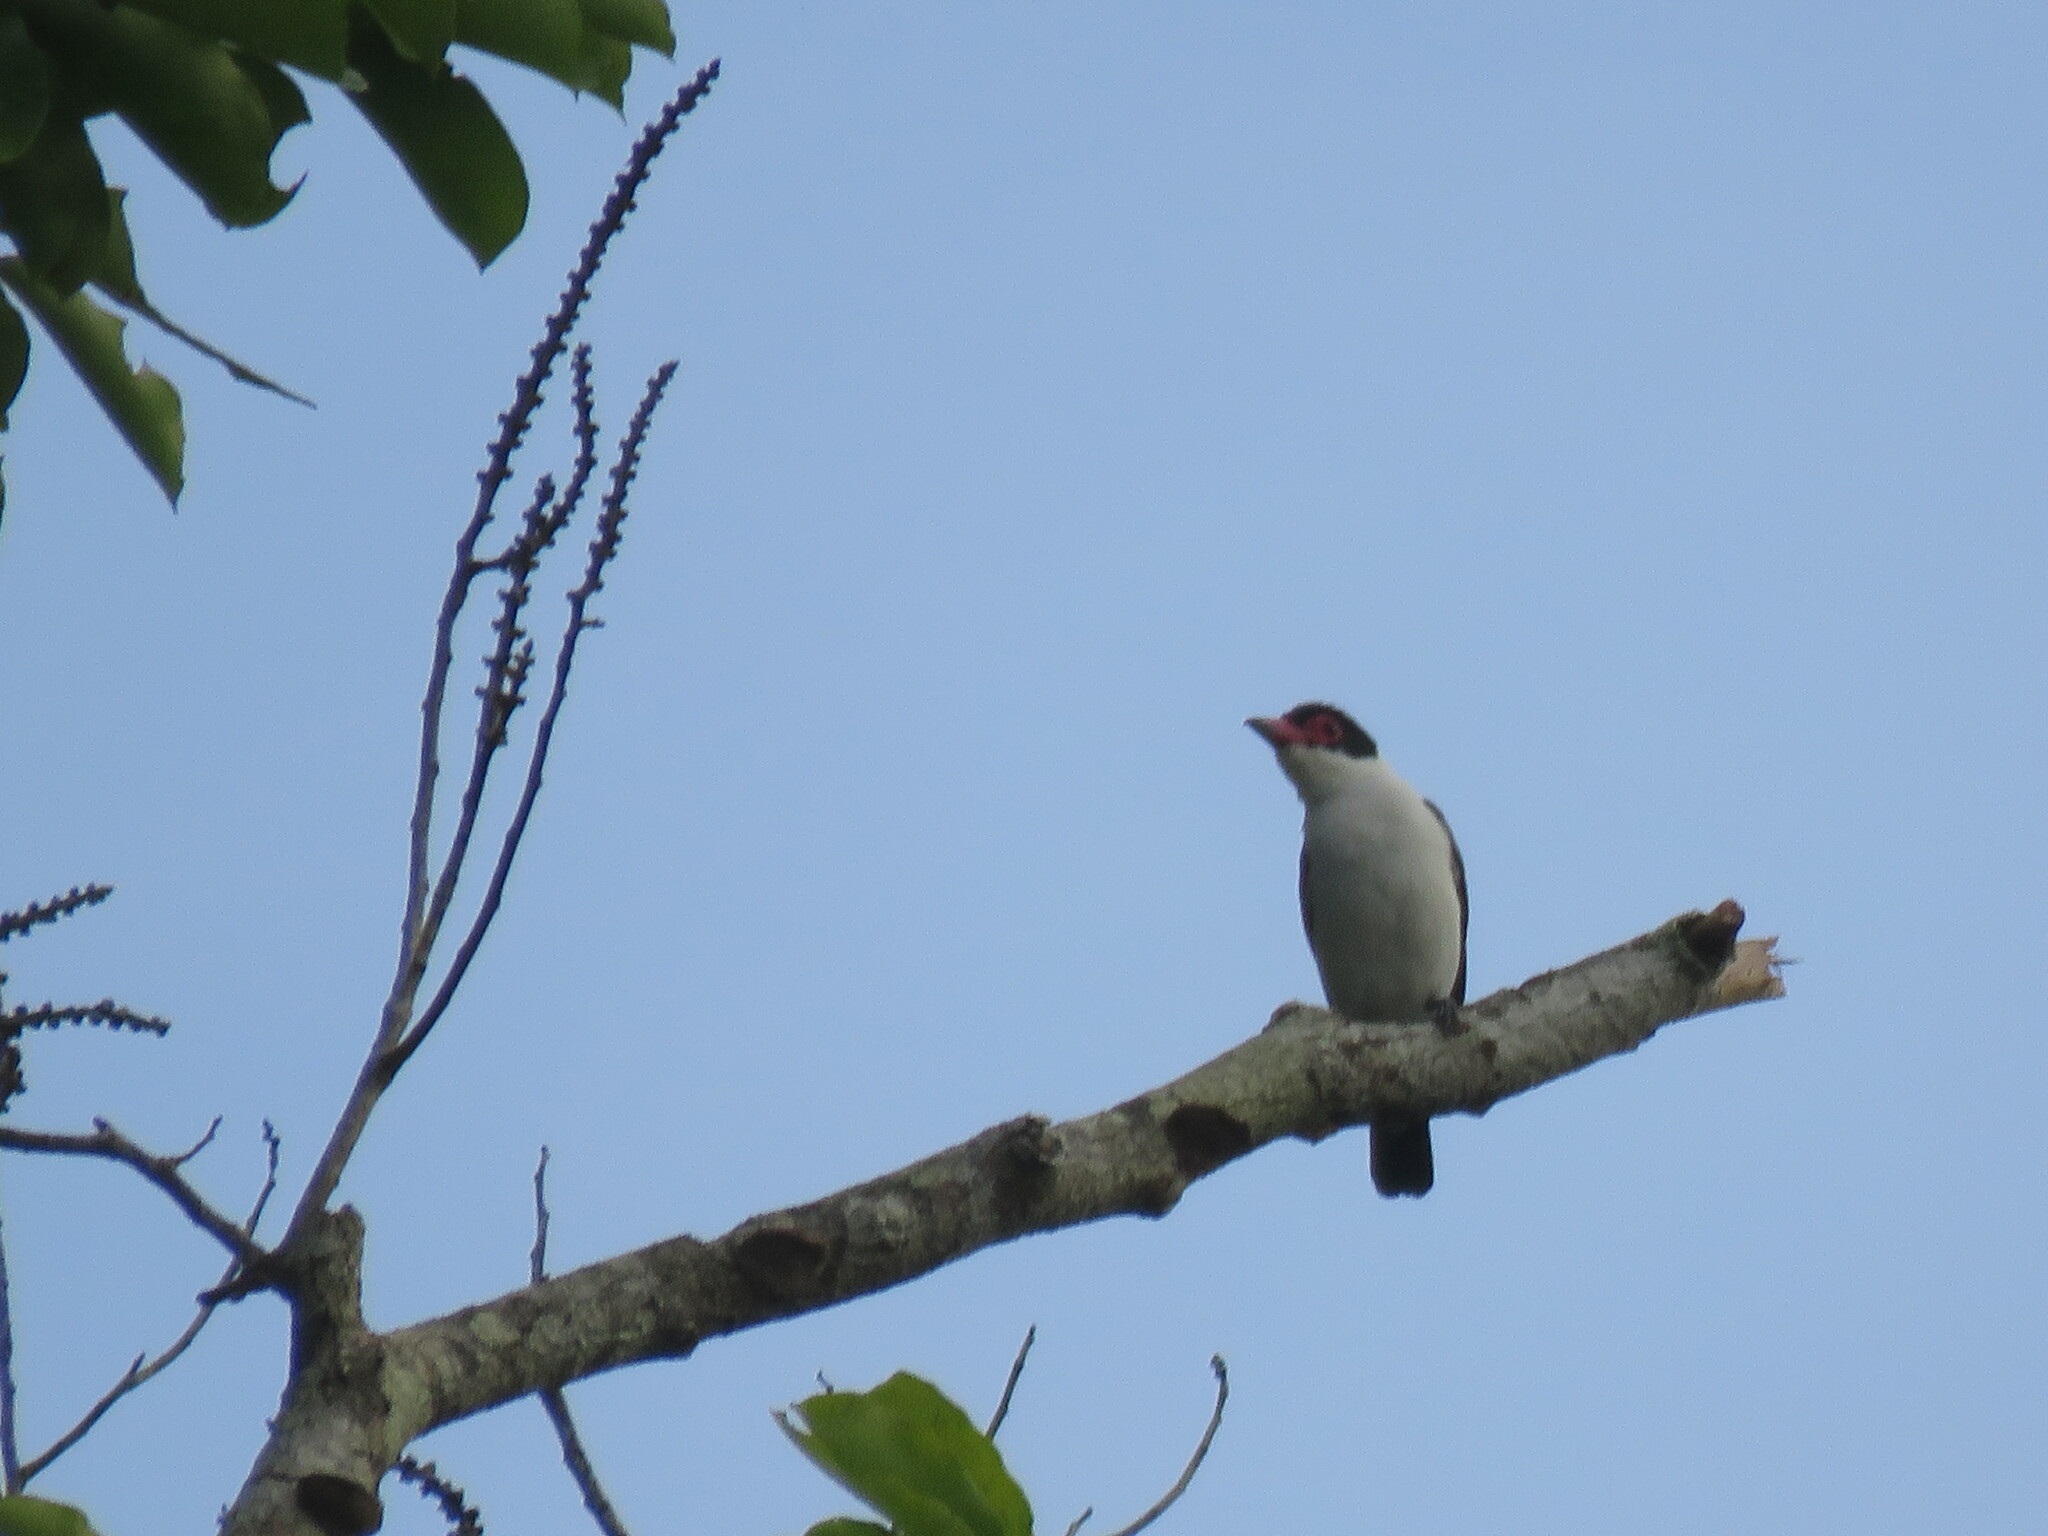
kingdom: Animalia
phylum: Chordata
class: Aves
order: Passeriformes
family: Cotingidae
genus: Tityra
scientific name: Tityra cayana
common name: Black-tailed tityra
